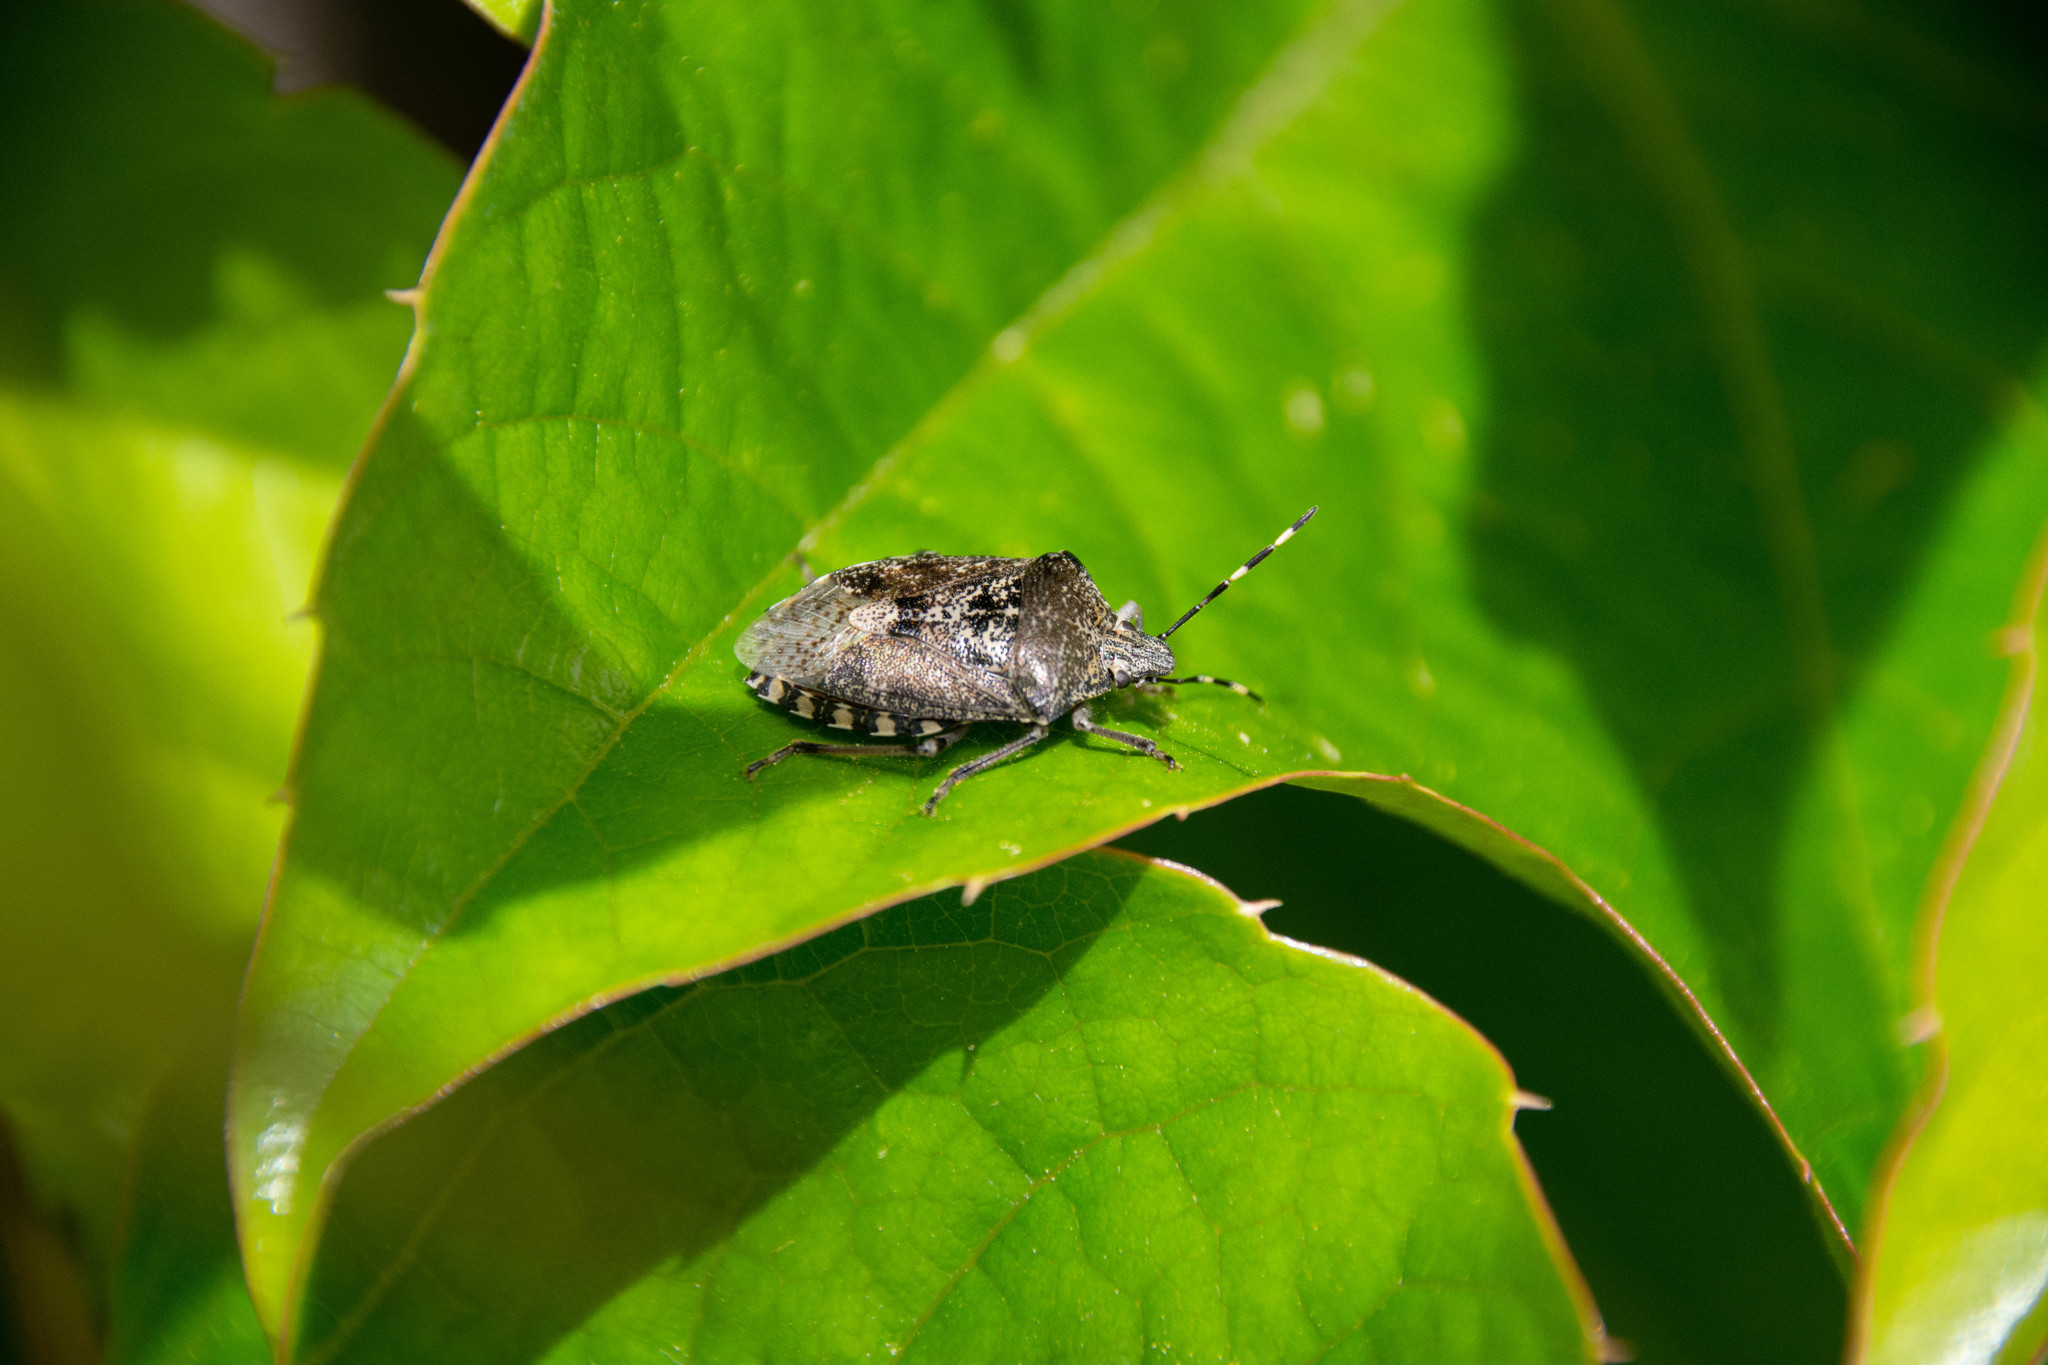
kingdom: Animalia
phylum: Arthropoda
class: Insecta
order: Hemiptera
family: Pentatomidae
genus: Rhaphigaster
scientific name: Rhaphigaster nebulosa
